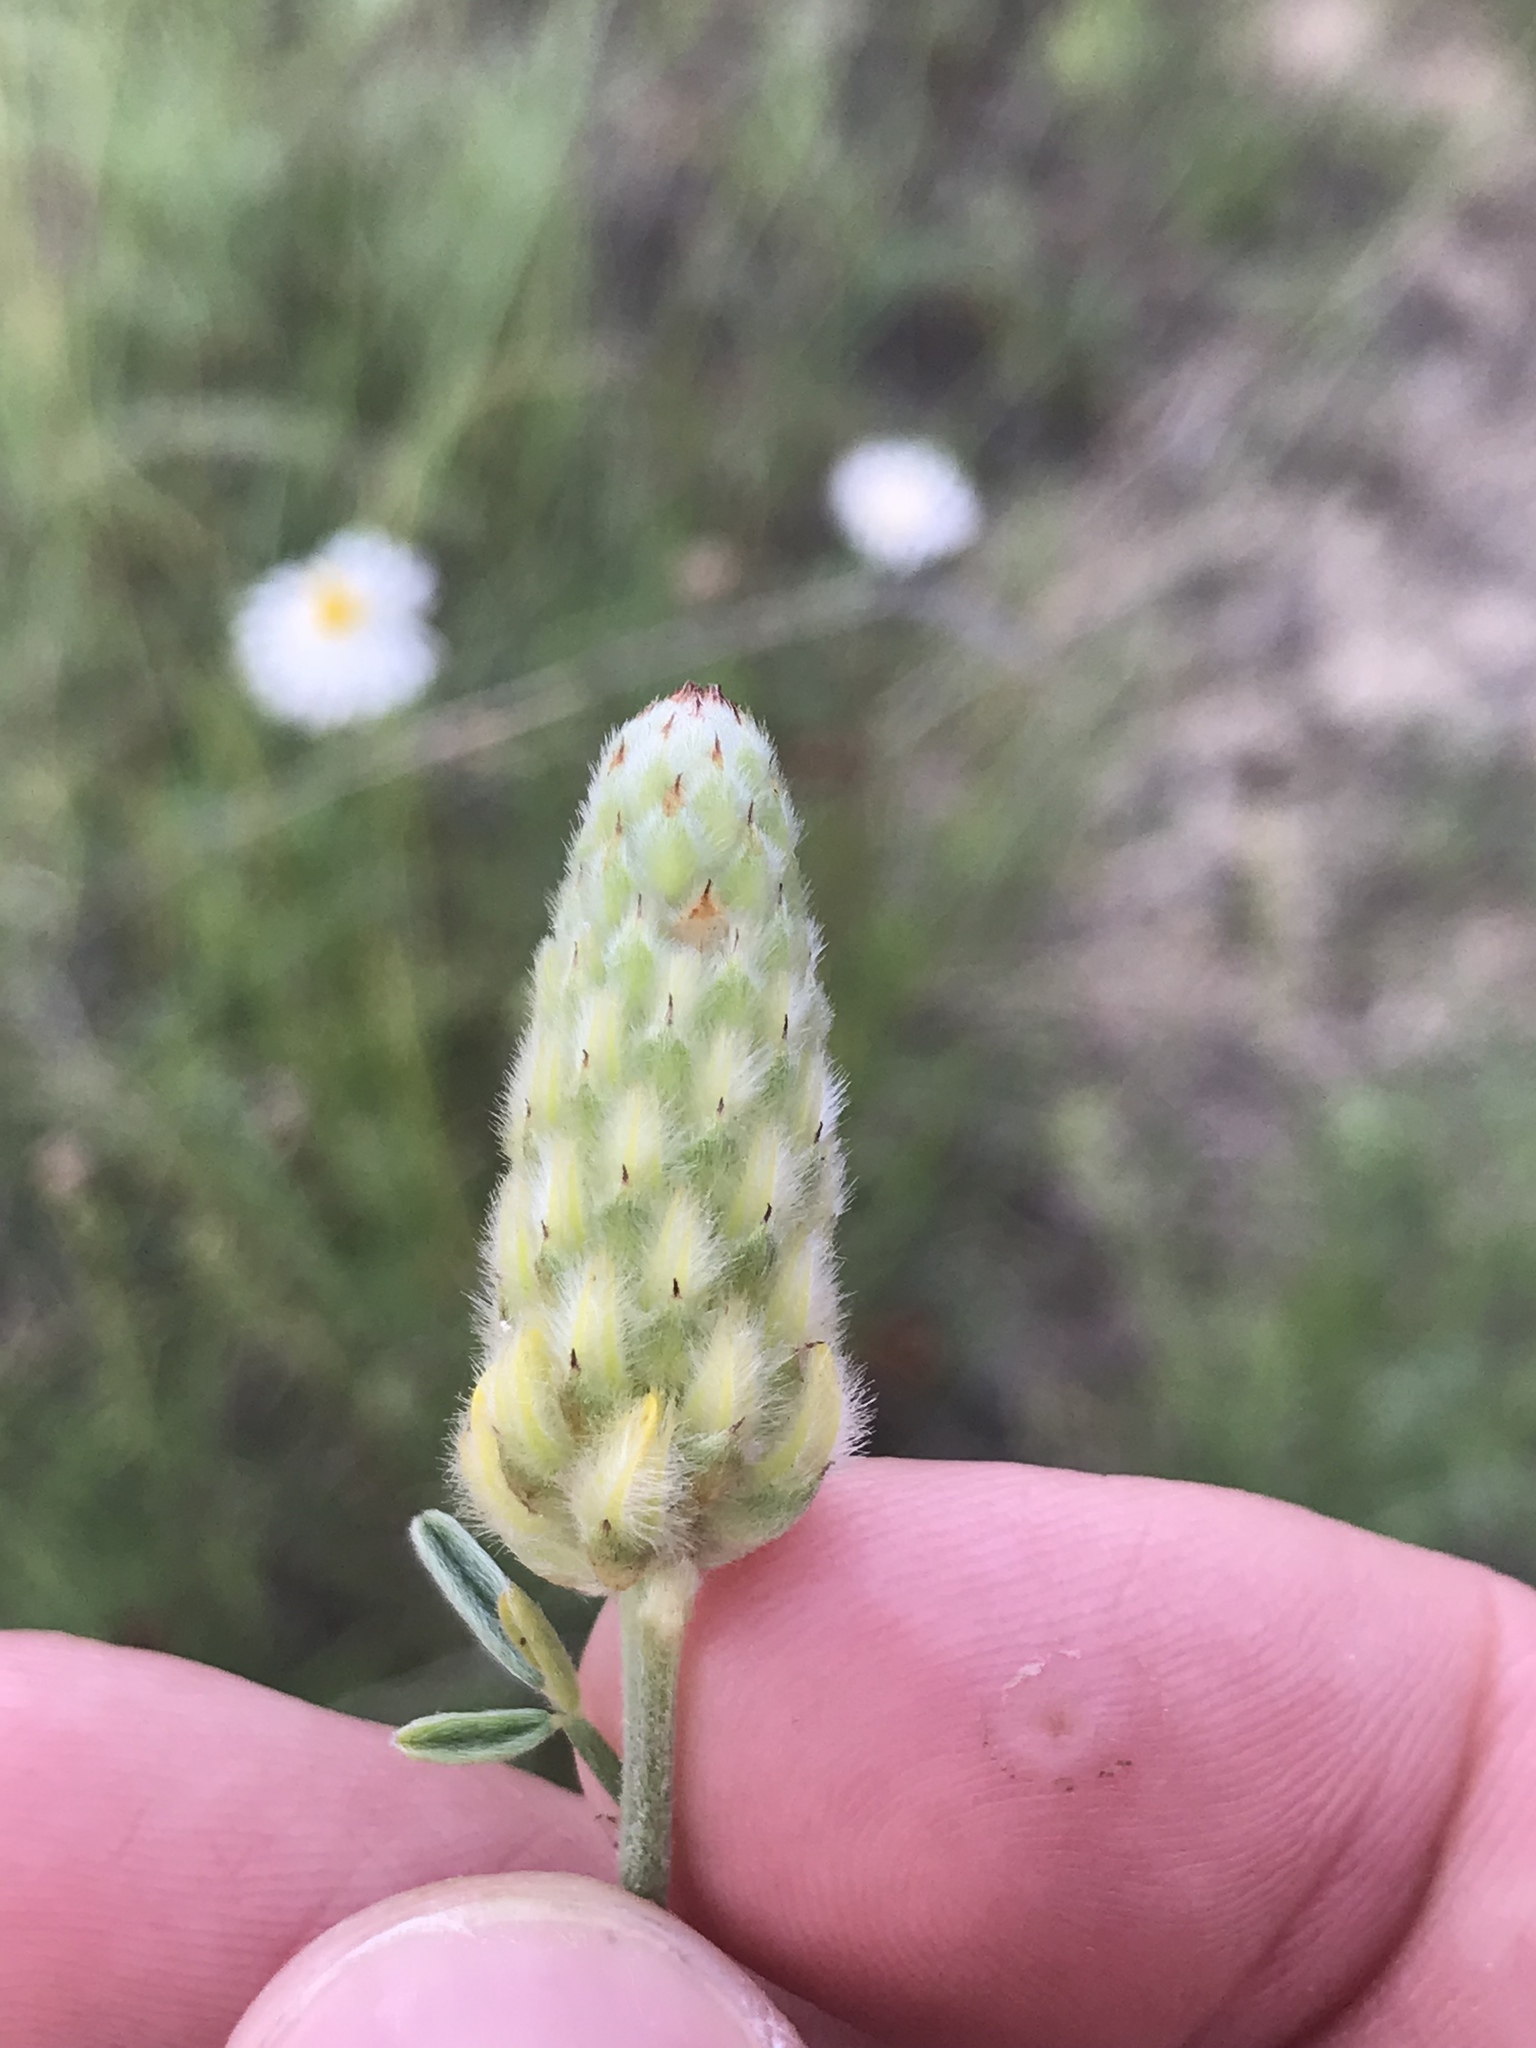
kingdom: Plantae
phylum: Tracheophyta
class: Magnoliopsida
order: Fabales
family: Fabaceae
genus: Dalea
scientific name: Dalea aurea
